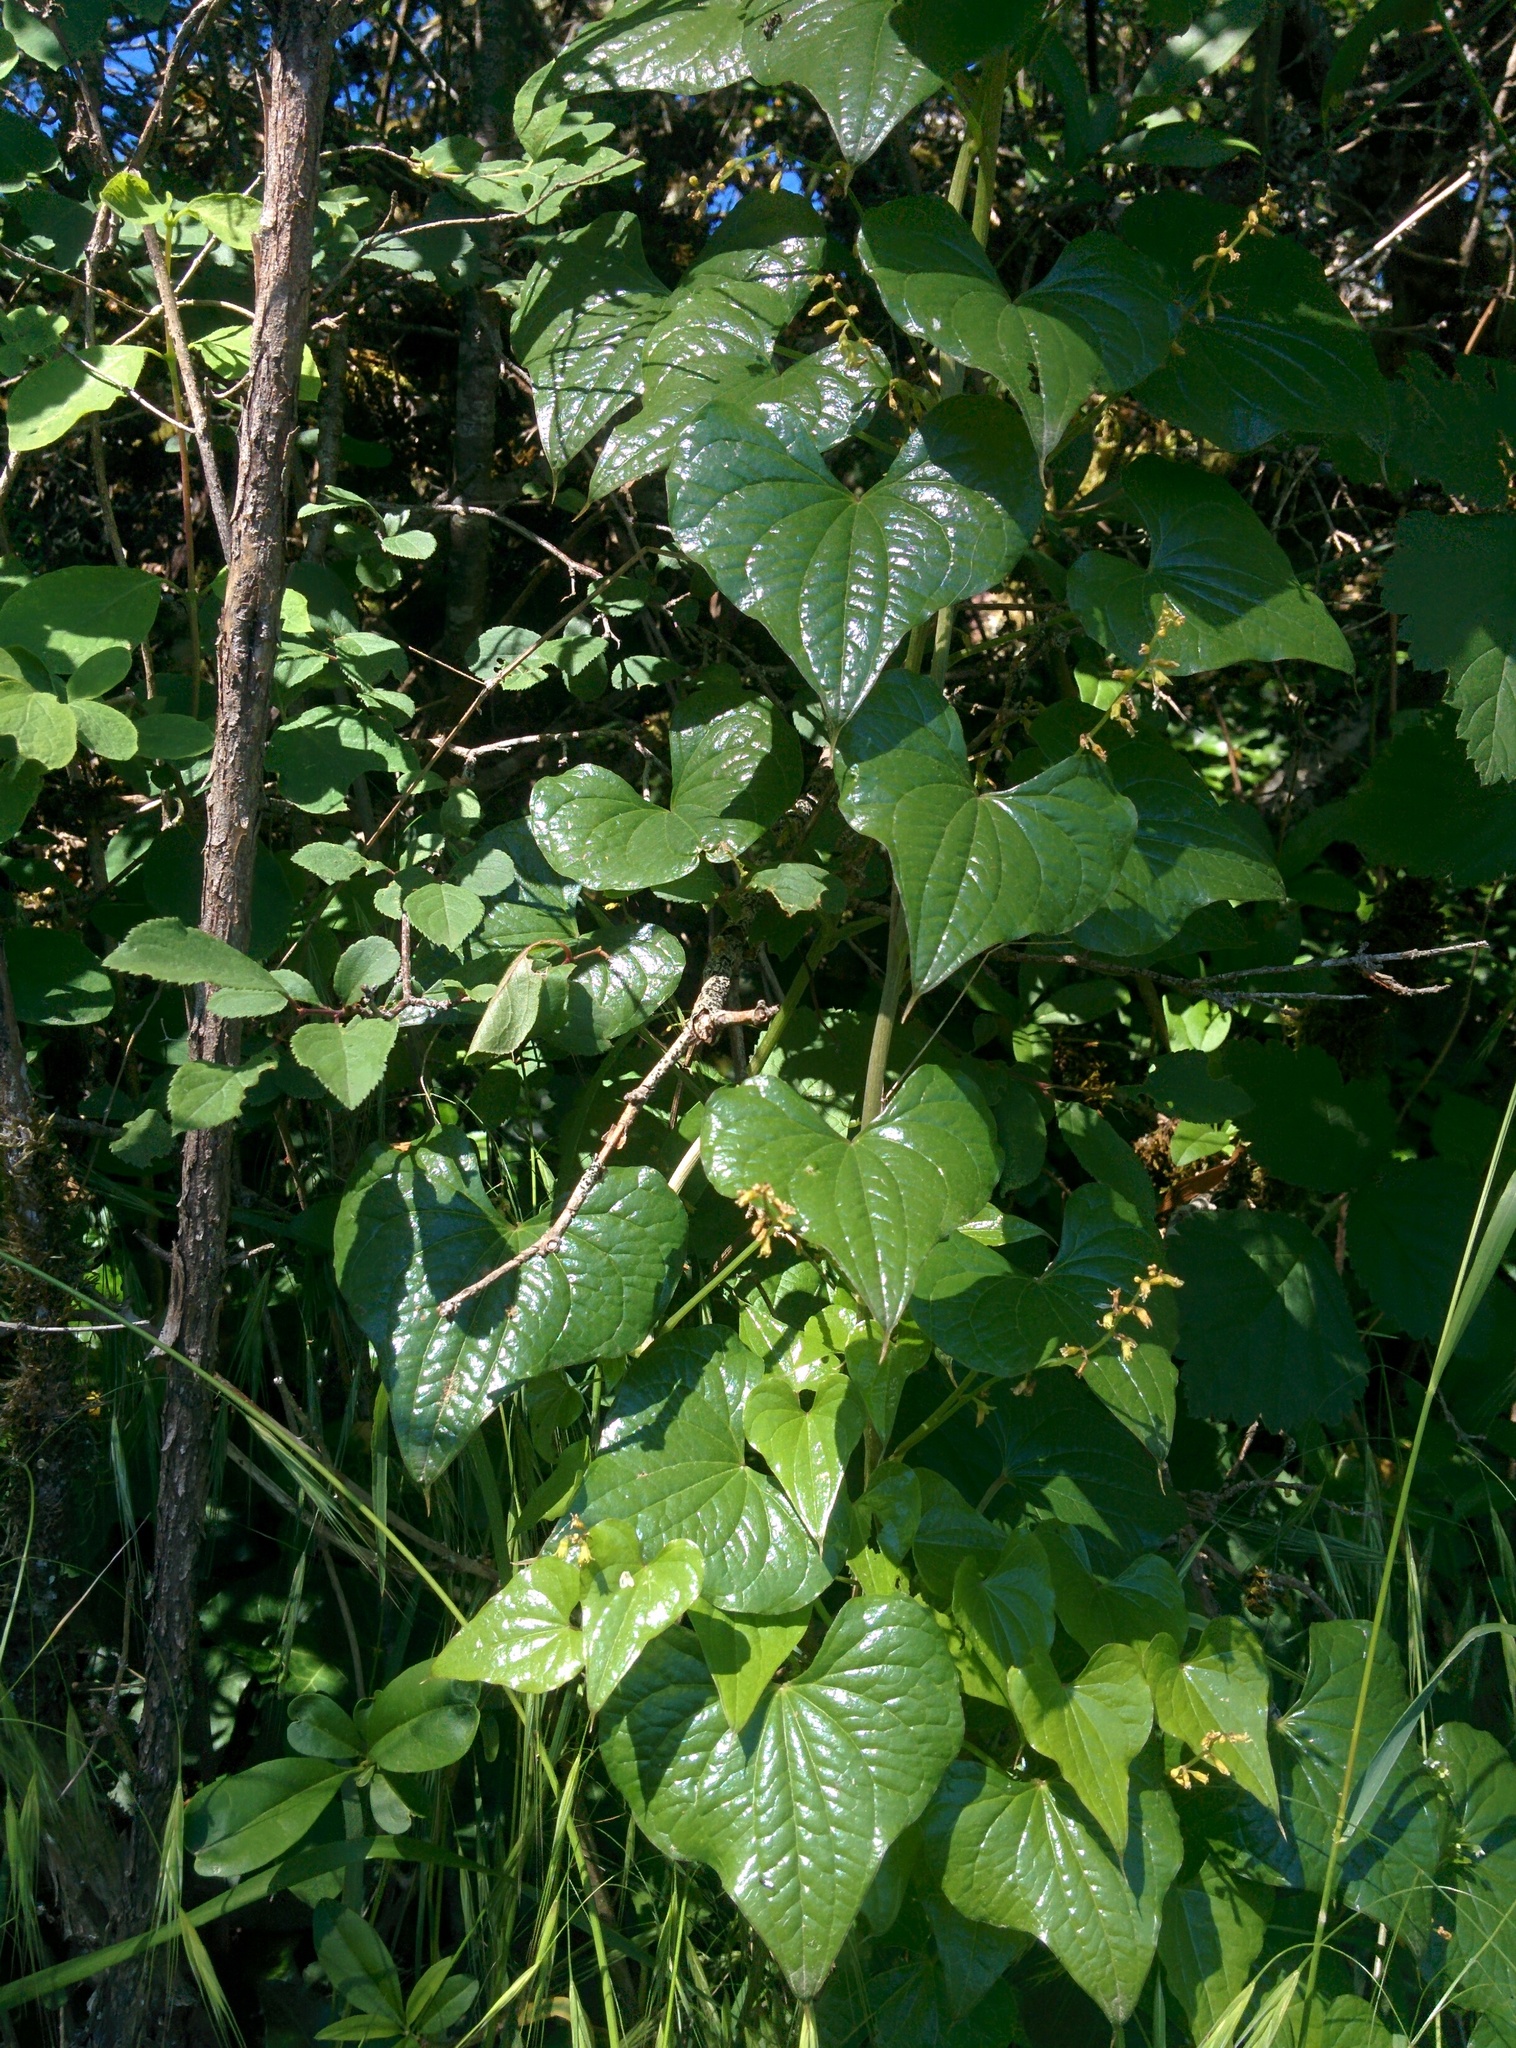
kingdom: Plantae
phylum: Tracheophyta
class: Liliopsida
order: Dioscoreales
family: Dioscoreaceae
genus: Dioscorea
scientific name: Dioscorea communis
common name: Black-bindweed
